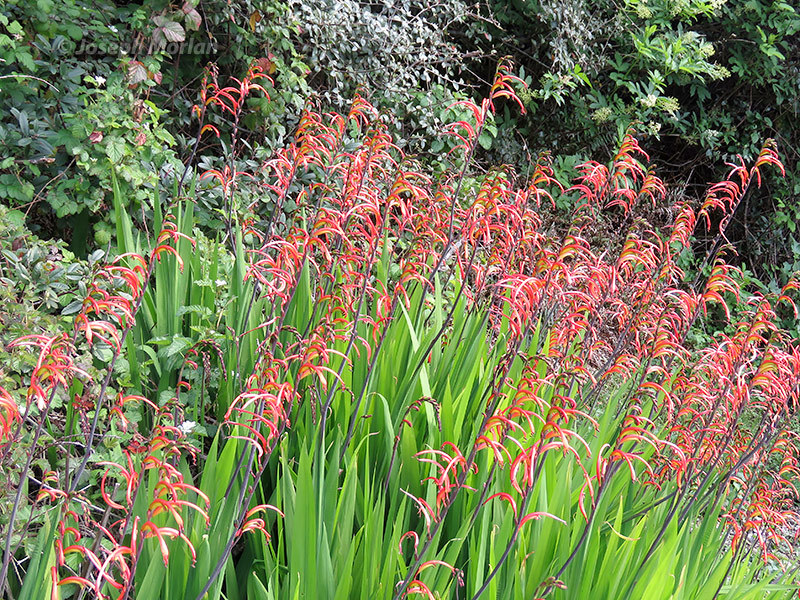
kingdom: Plantae
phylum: Tracheophyta
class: Liliopsida
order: Asparagales
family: Iridaceae
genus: Chasmanthe
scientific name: Chasmanthe bicolor
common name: Bicolor cobra lily
